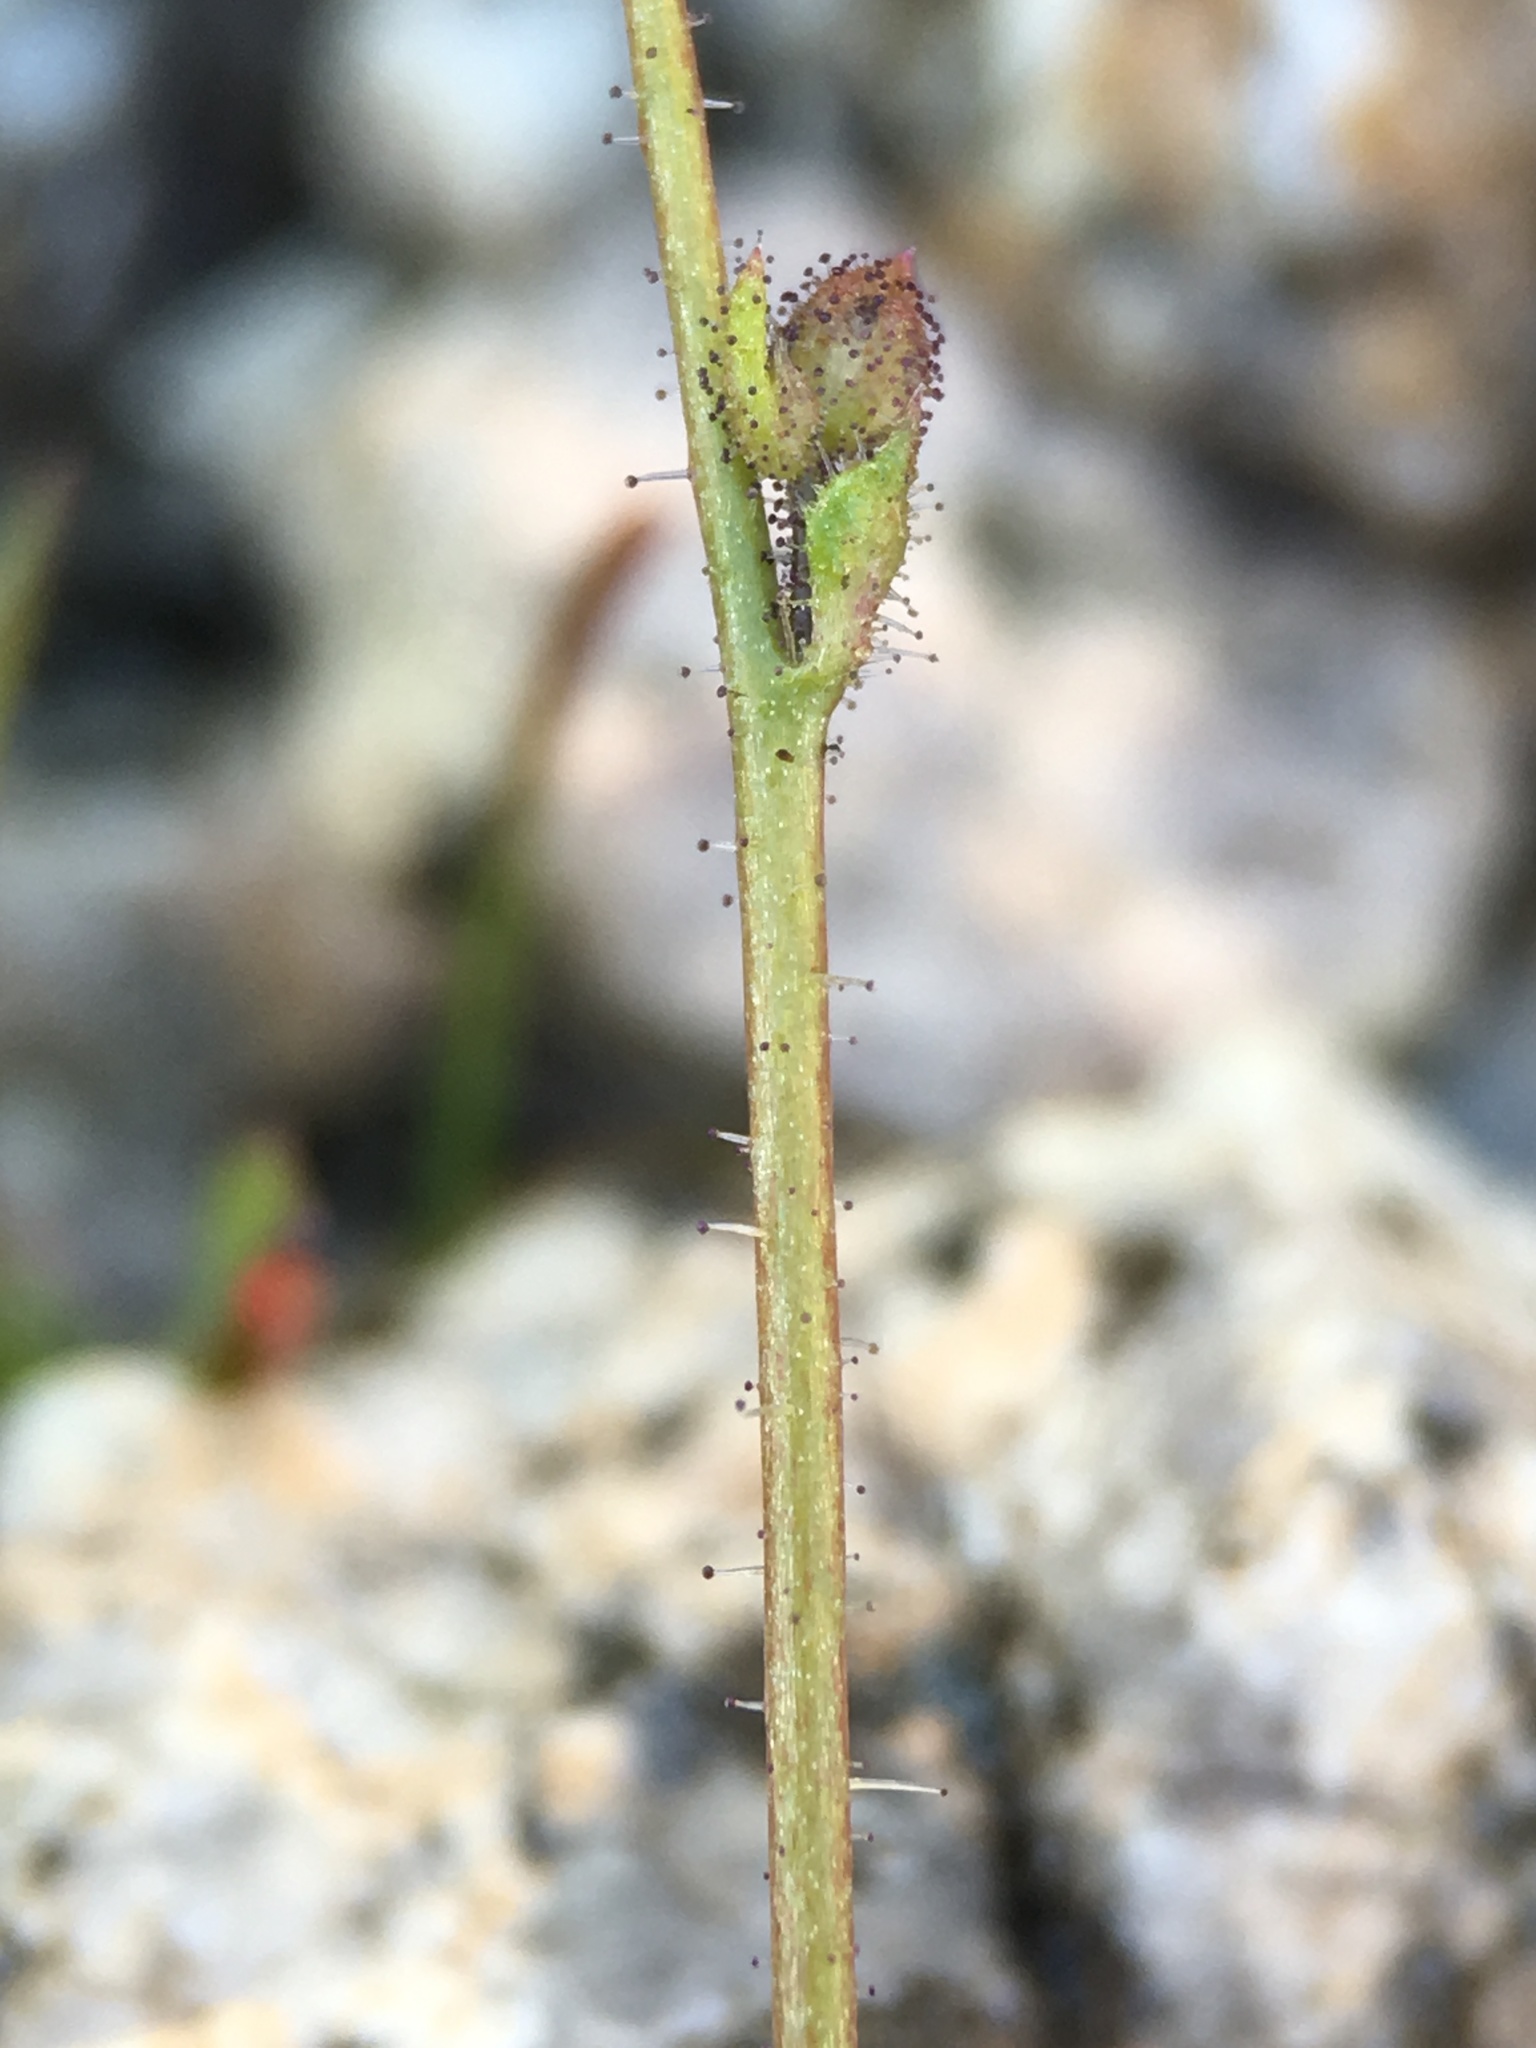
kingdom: Plantae
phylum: Tracheophyta
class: Magnoliopsida
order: Ericales
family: Polemoniaceae
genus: Gilia
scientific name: Gilia stellata
